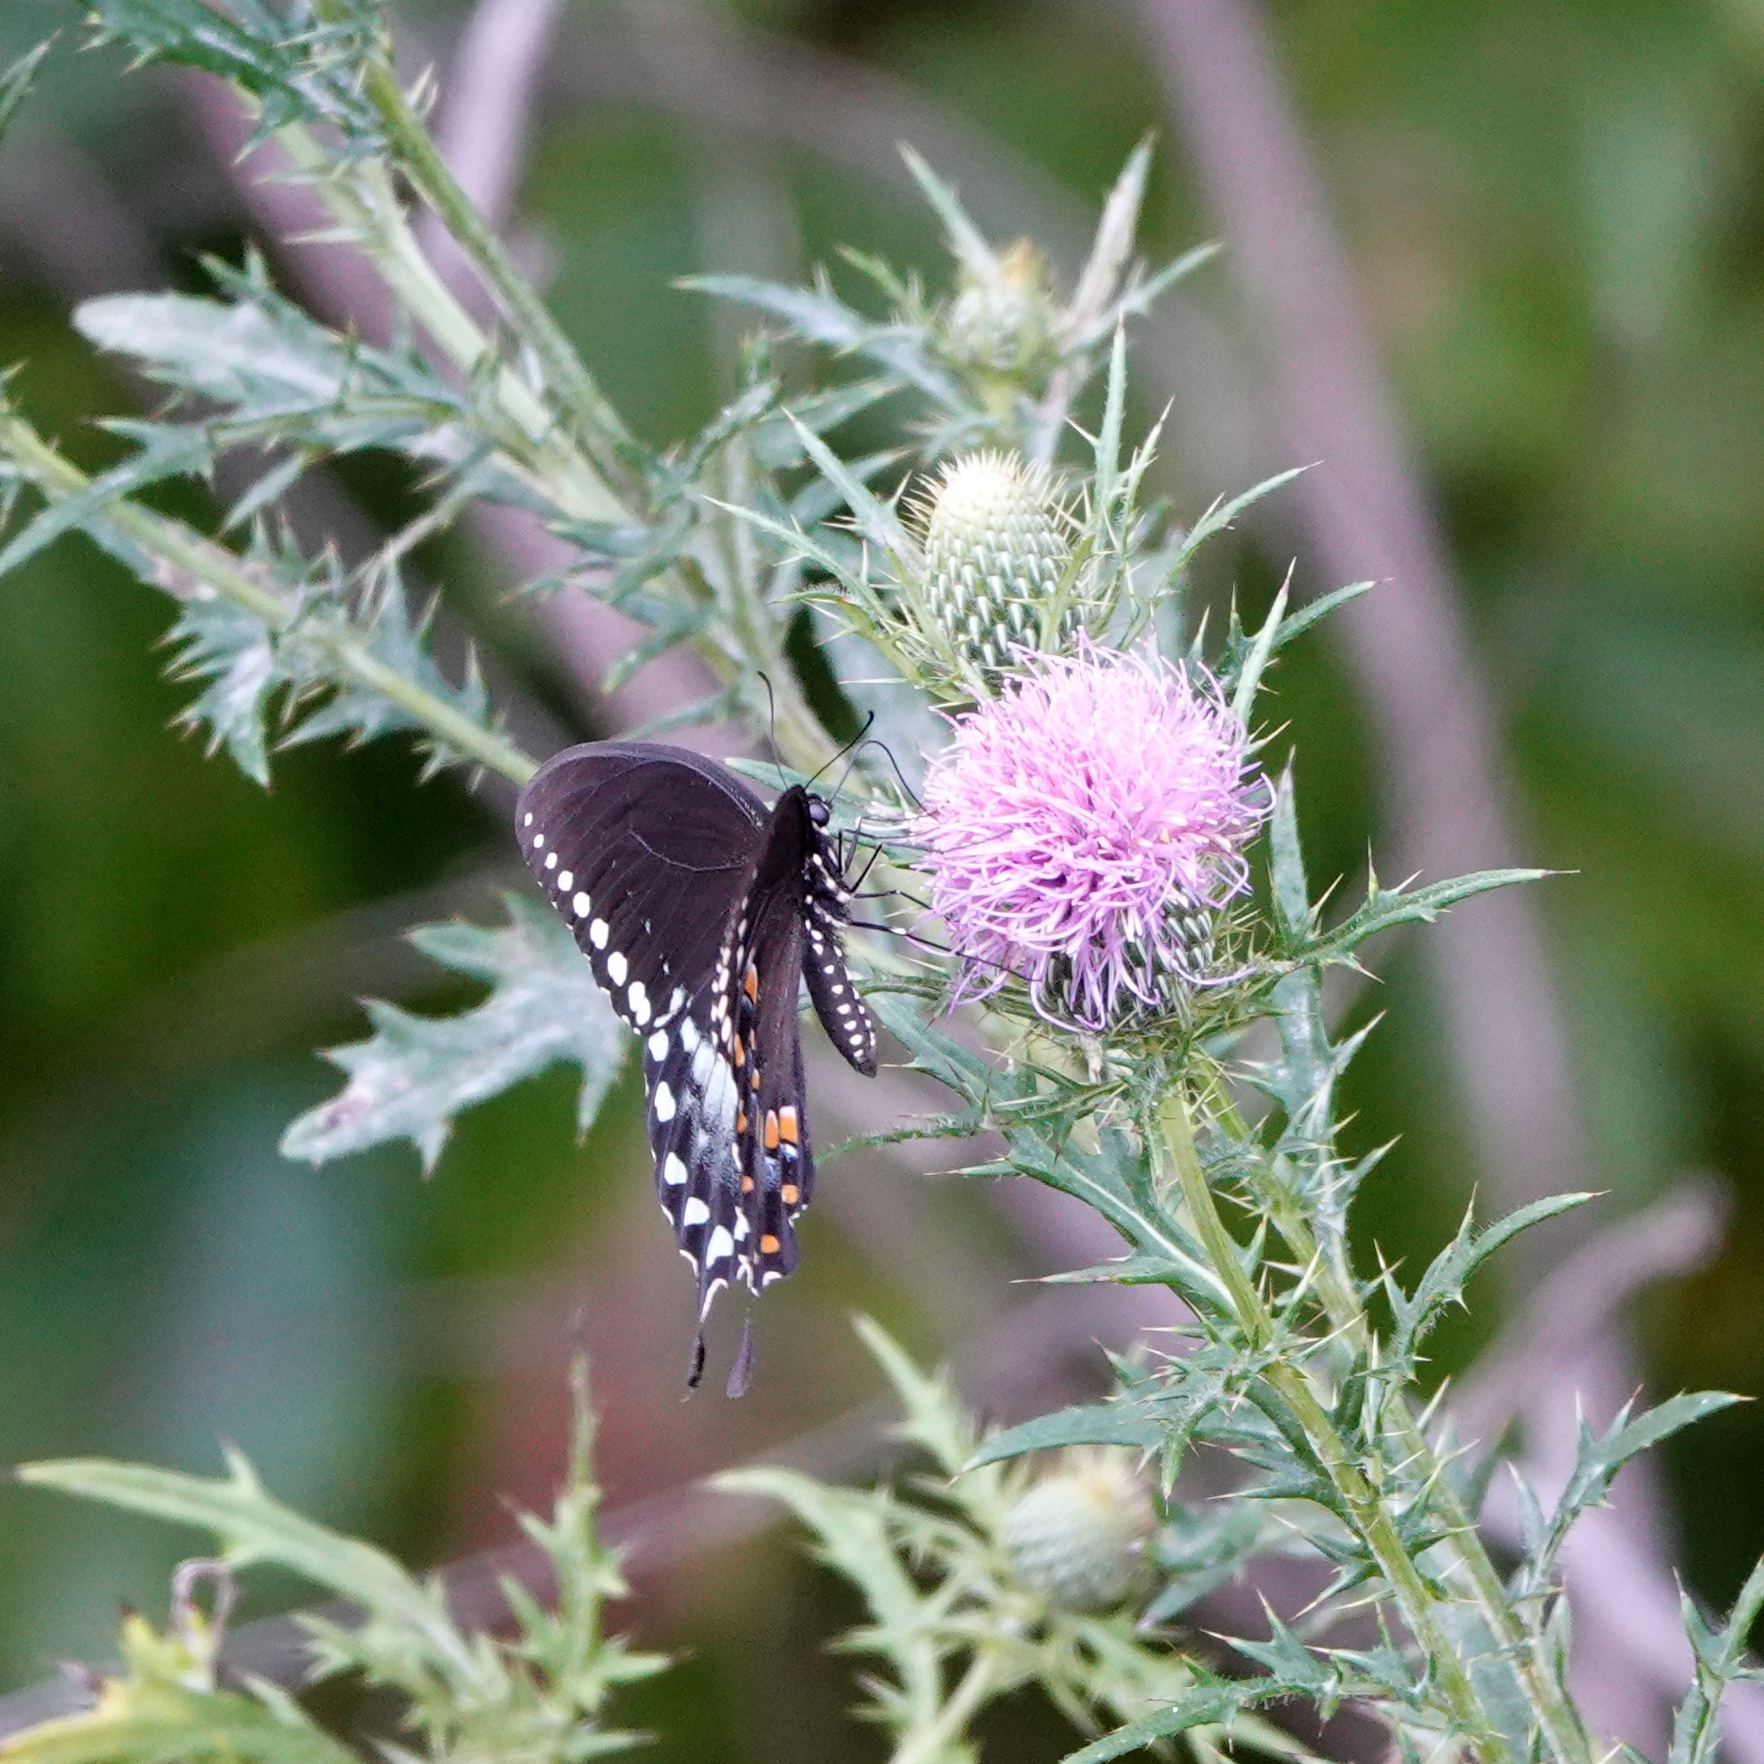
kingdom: Animalia
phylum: Arthropoda
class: Insecta
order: Lepidoptera
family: Papilionidae
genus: Papilio
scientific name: Papilio troilus
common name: Spicebush swallowtail
